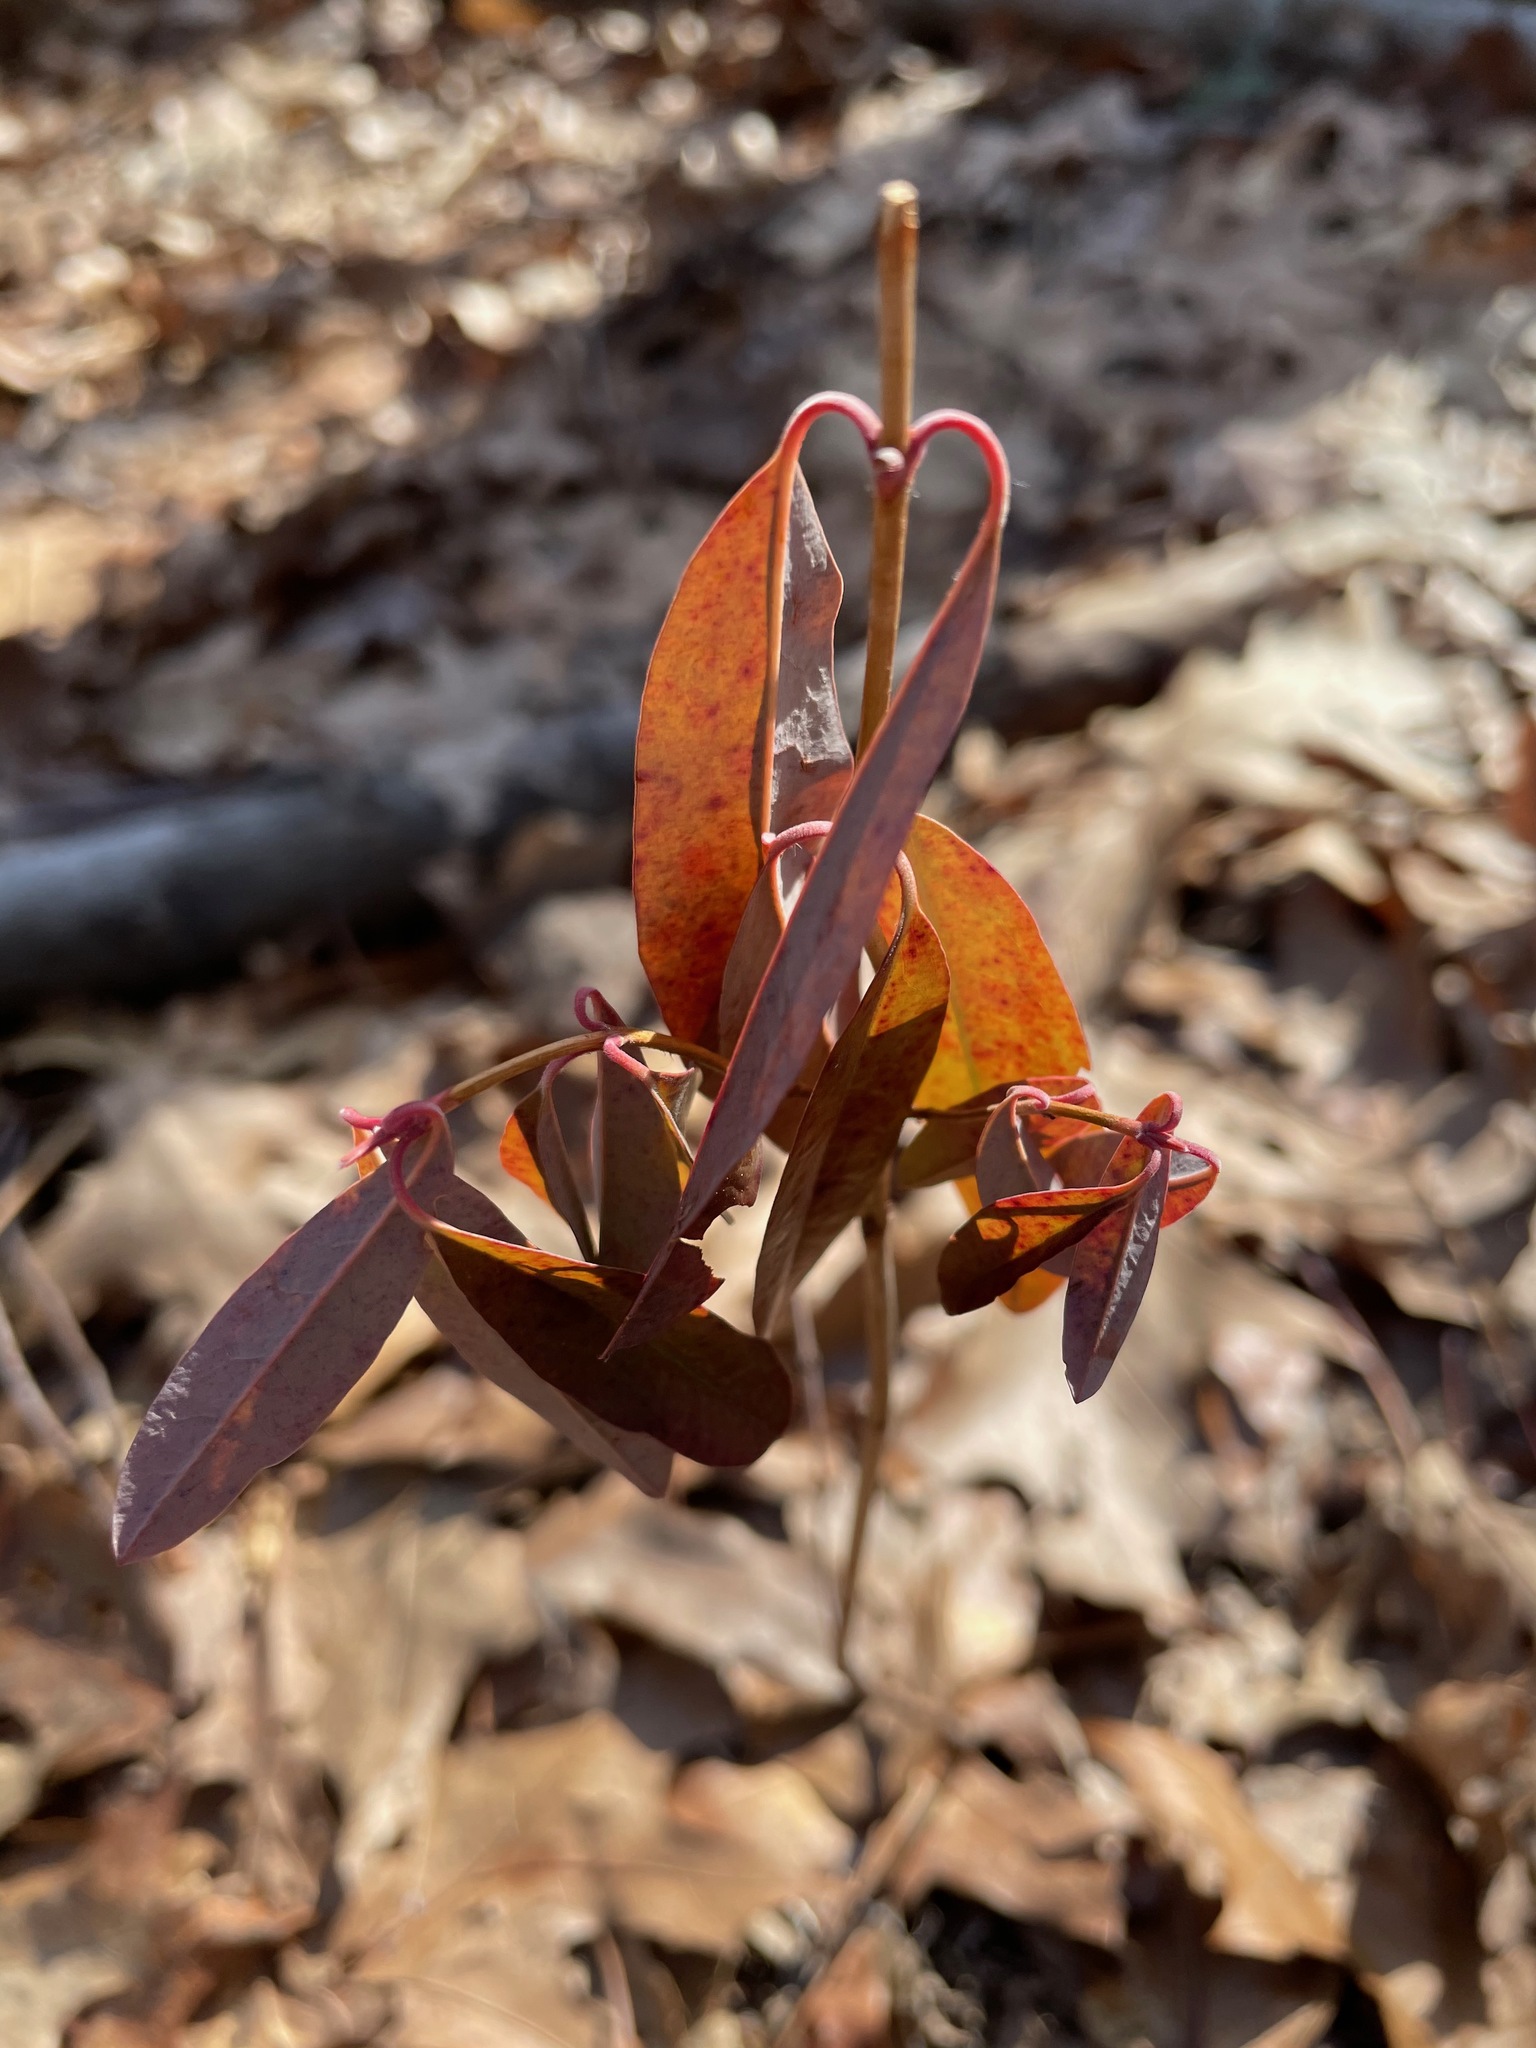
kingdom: Plantae
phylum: Tracheophyta
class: Magnoliopsida
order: Ericales
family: Ericaceae
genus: Kalmia
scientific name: Kalmia angustifolia
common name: Sheep-laurel
